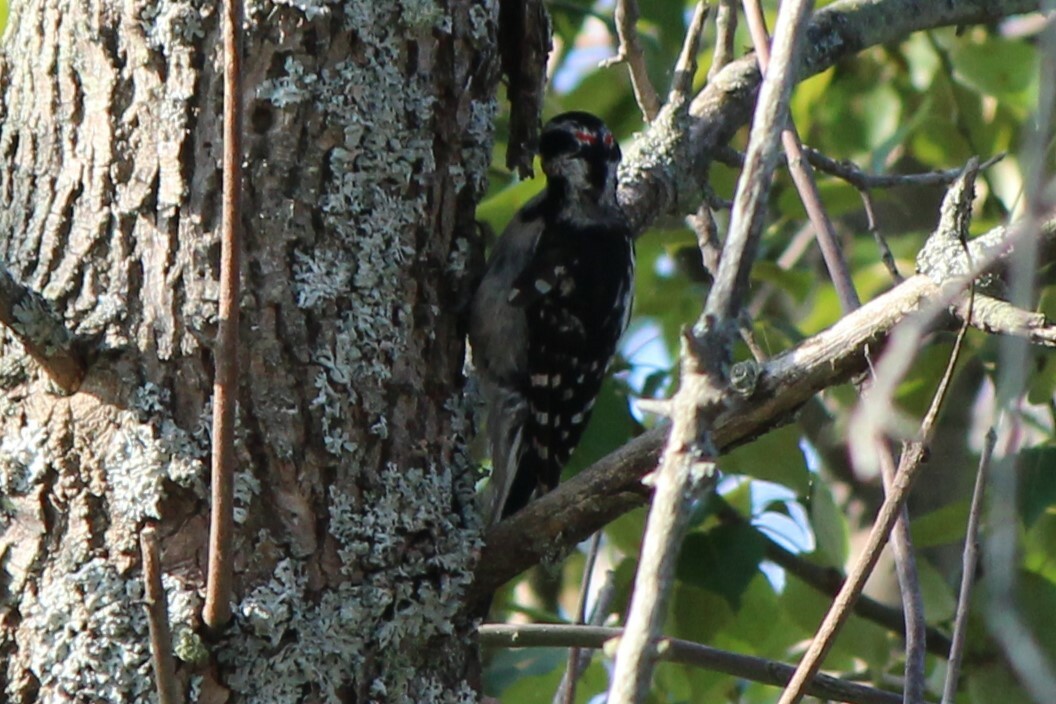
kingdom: Animalia
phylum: Chordata
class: Aves
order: Piciformes
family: Picidae
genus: Leuconotopicus
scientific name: Leuconotopicus villosus
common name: Hairy woodpecker
